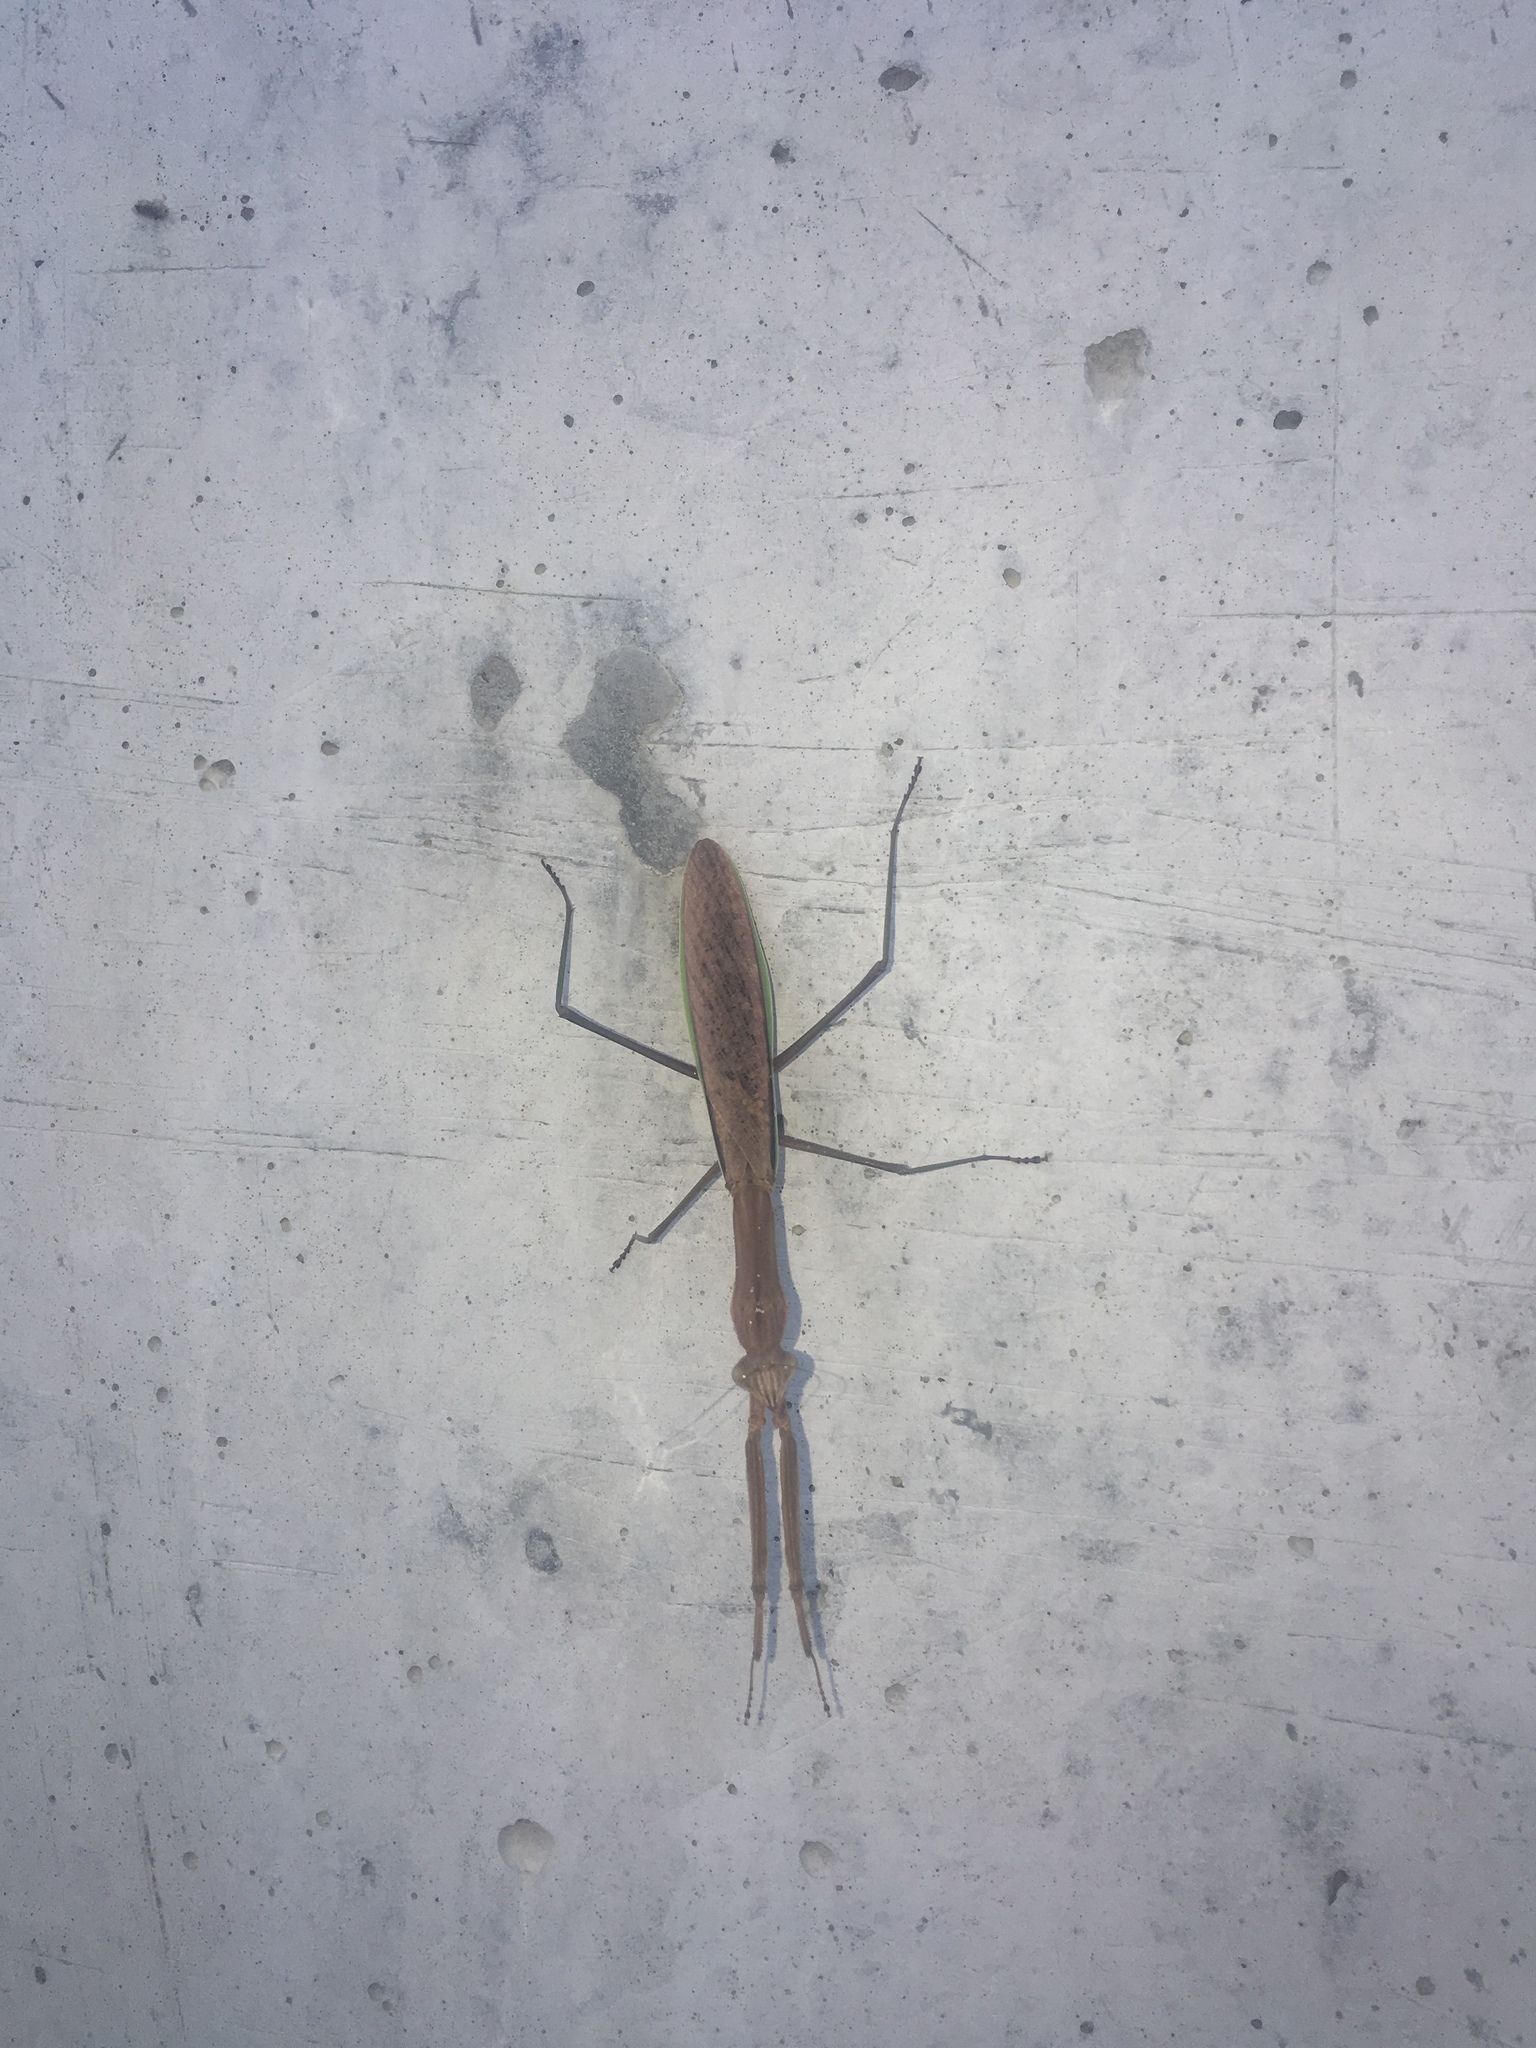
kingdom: Animalia
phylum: Arthropoda
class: Insecta
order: Mantodea
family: Mantidae
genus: Tenodera
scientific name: Tenodera sinensis
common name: Chinese mantis
